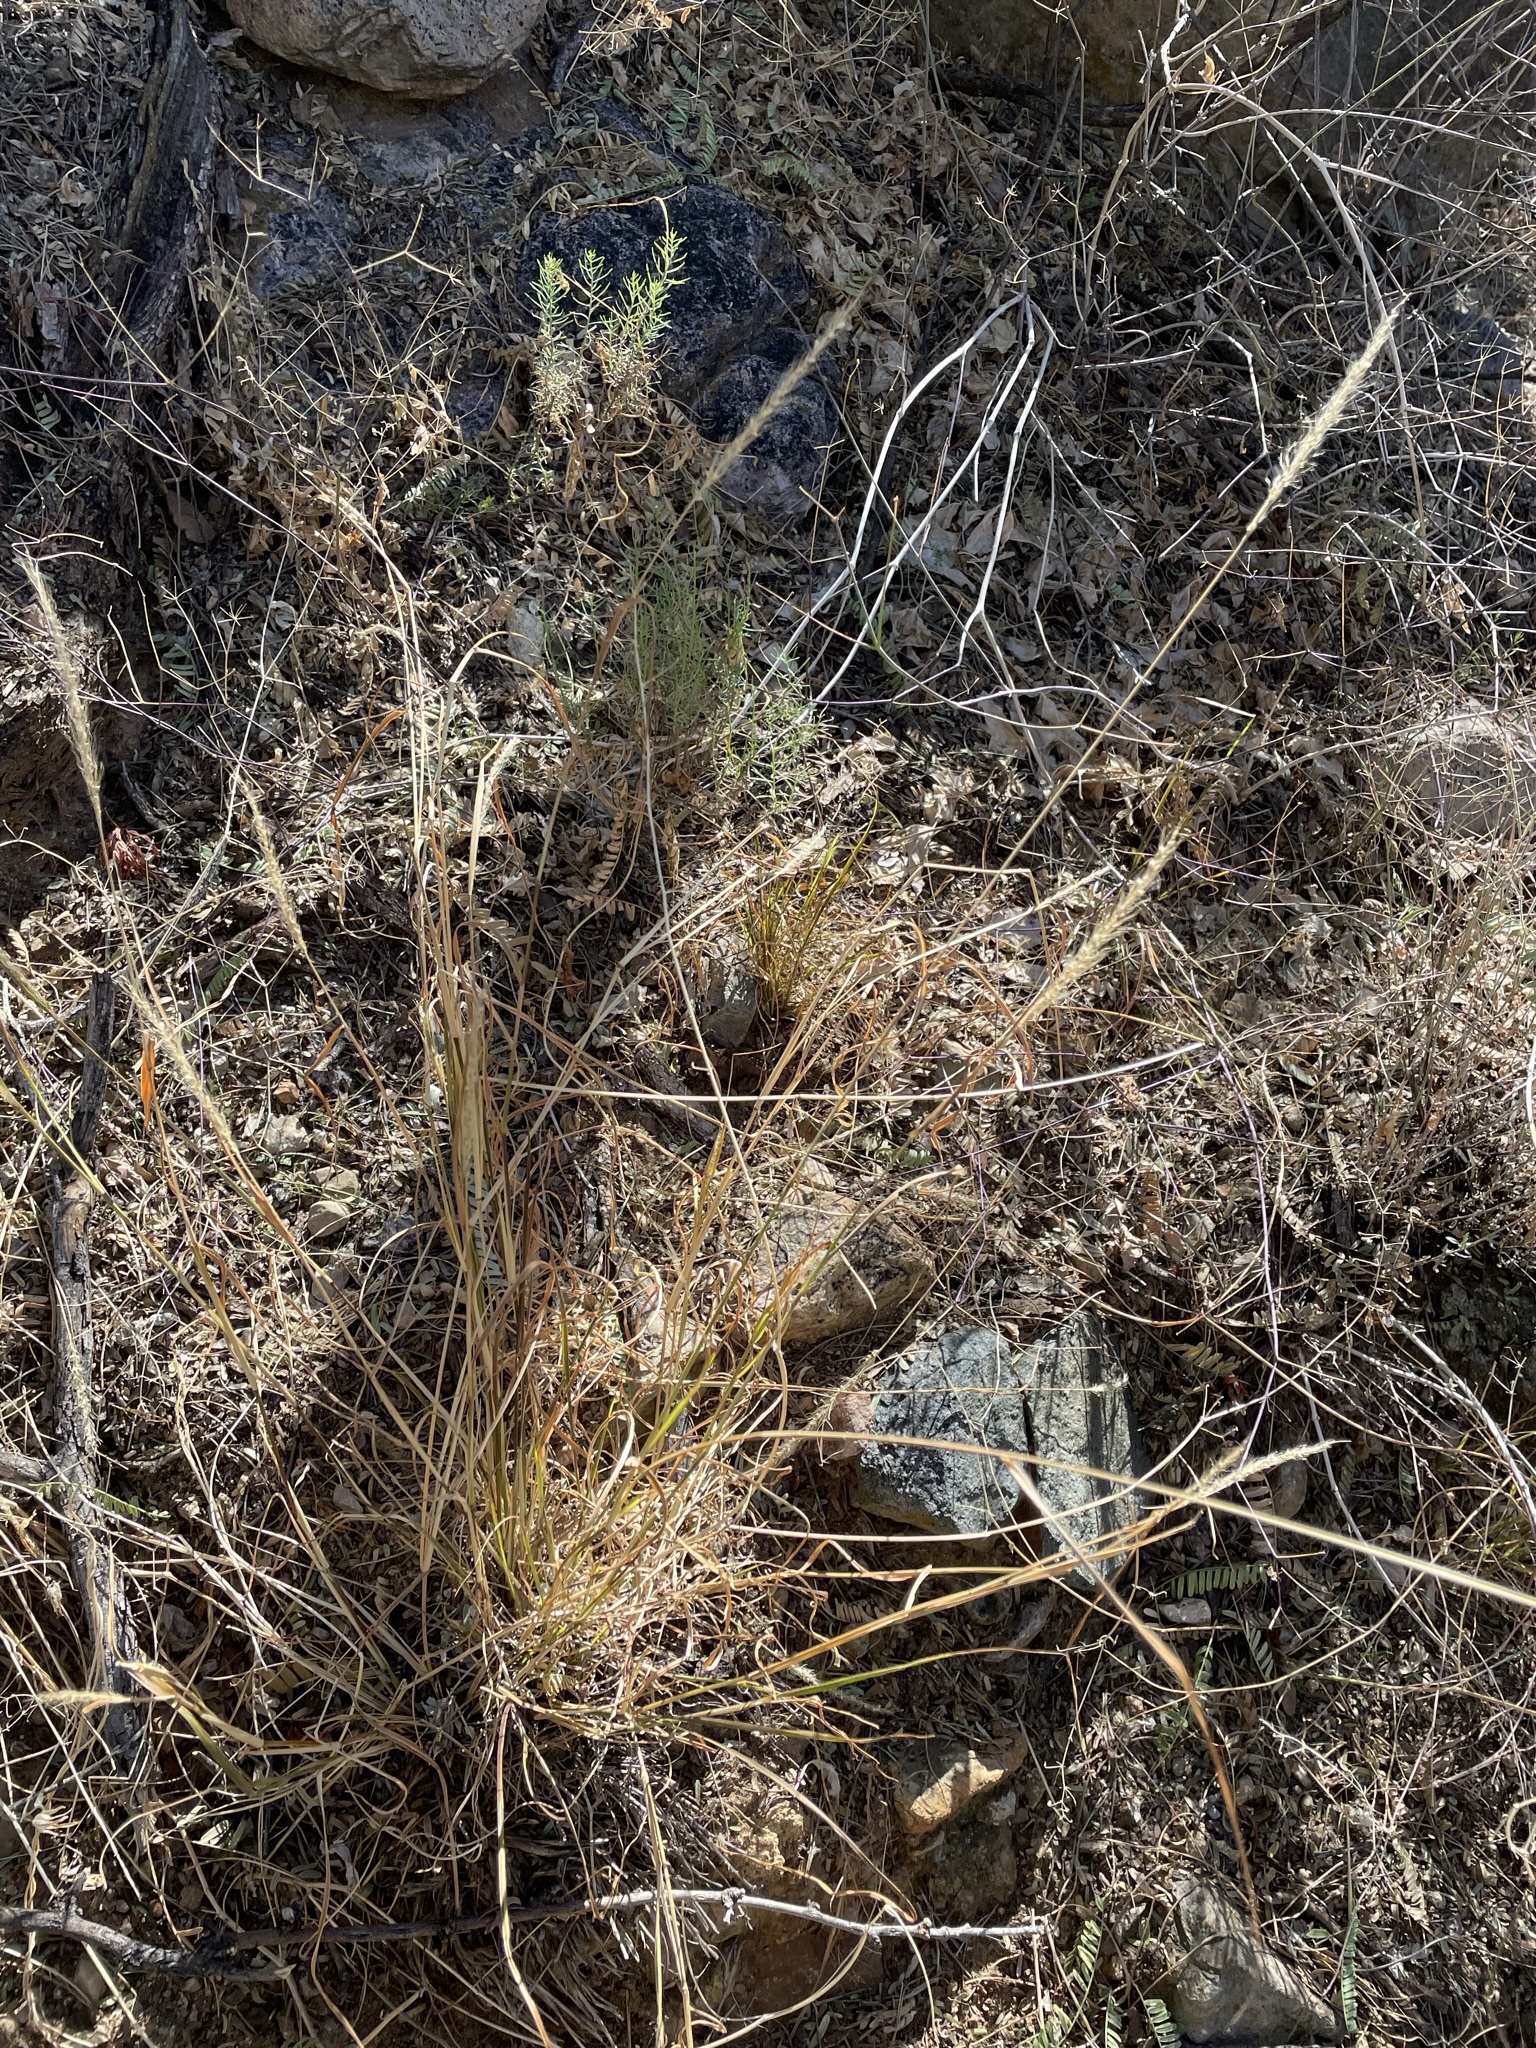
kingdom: Plantae
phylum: Tracheophyta
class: Liliopsida
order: Poales
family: Poaceae
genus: Setaria
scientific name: Setaria leucopila
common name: Plains bristle grass
